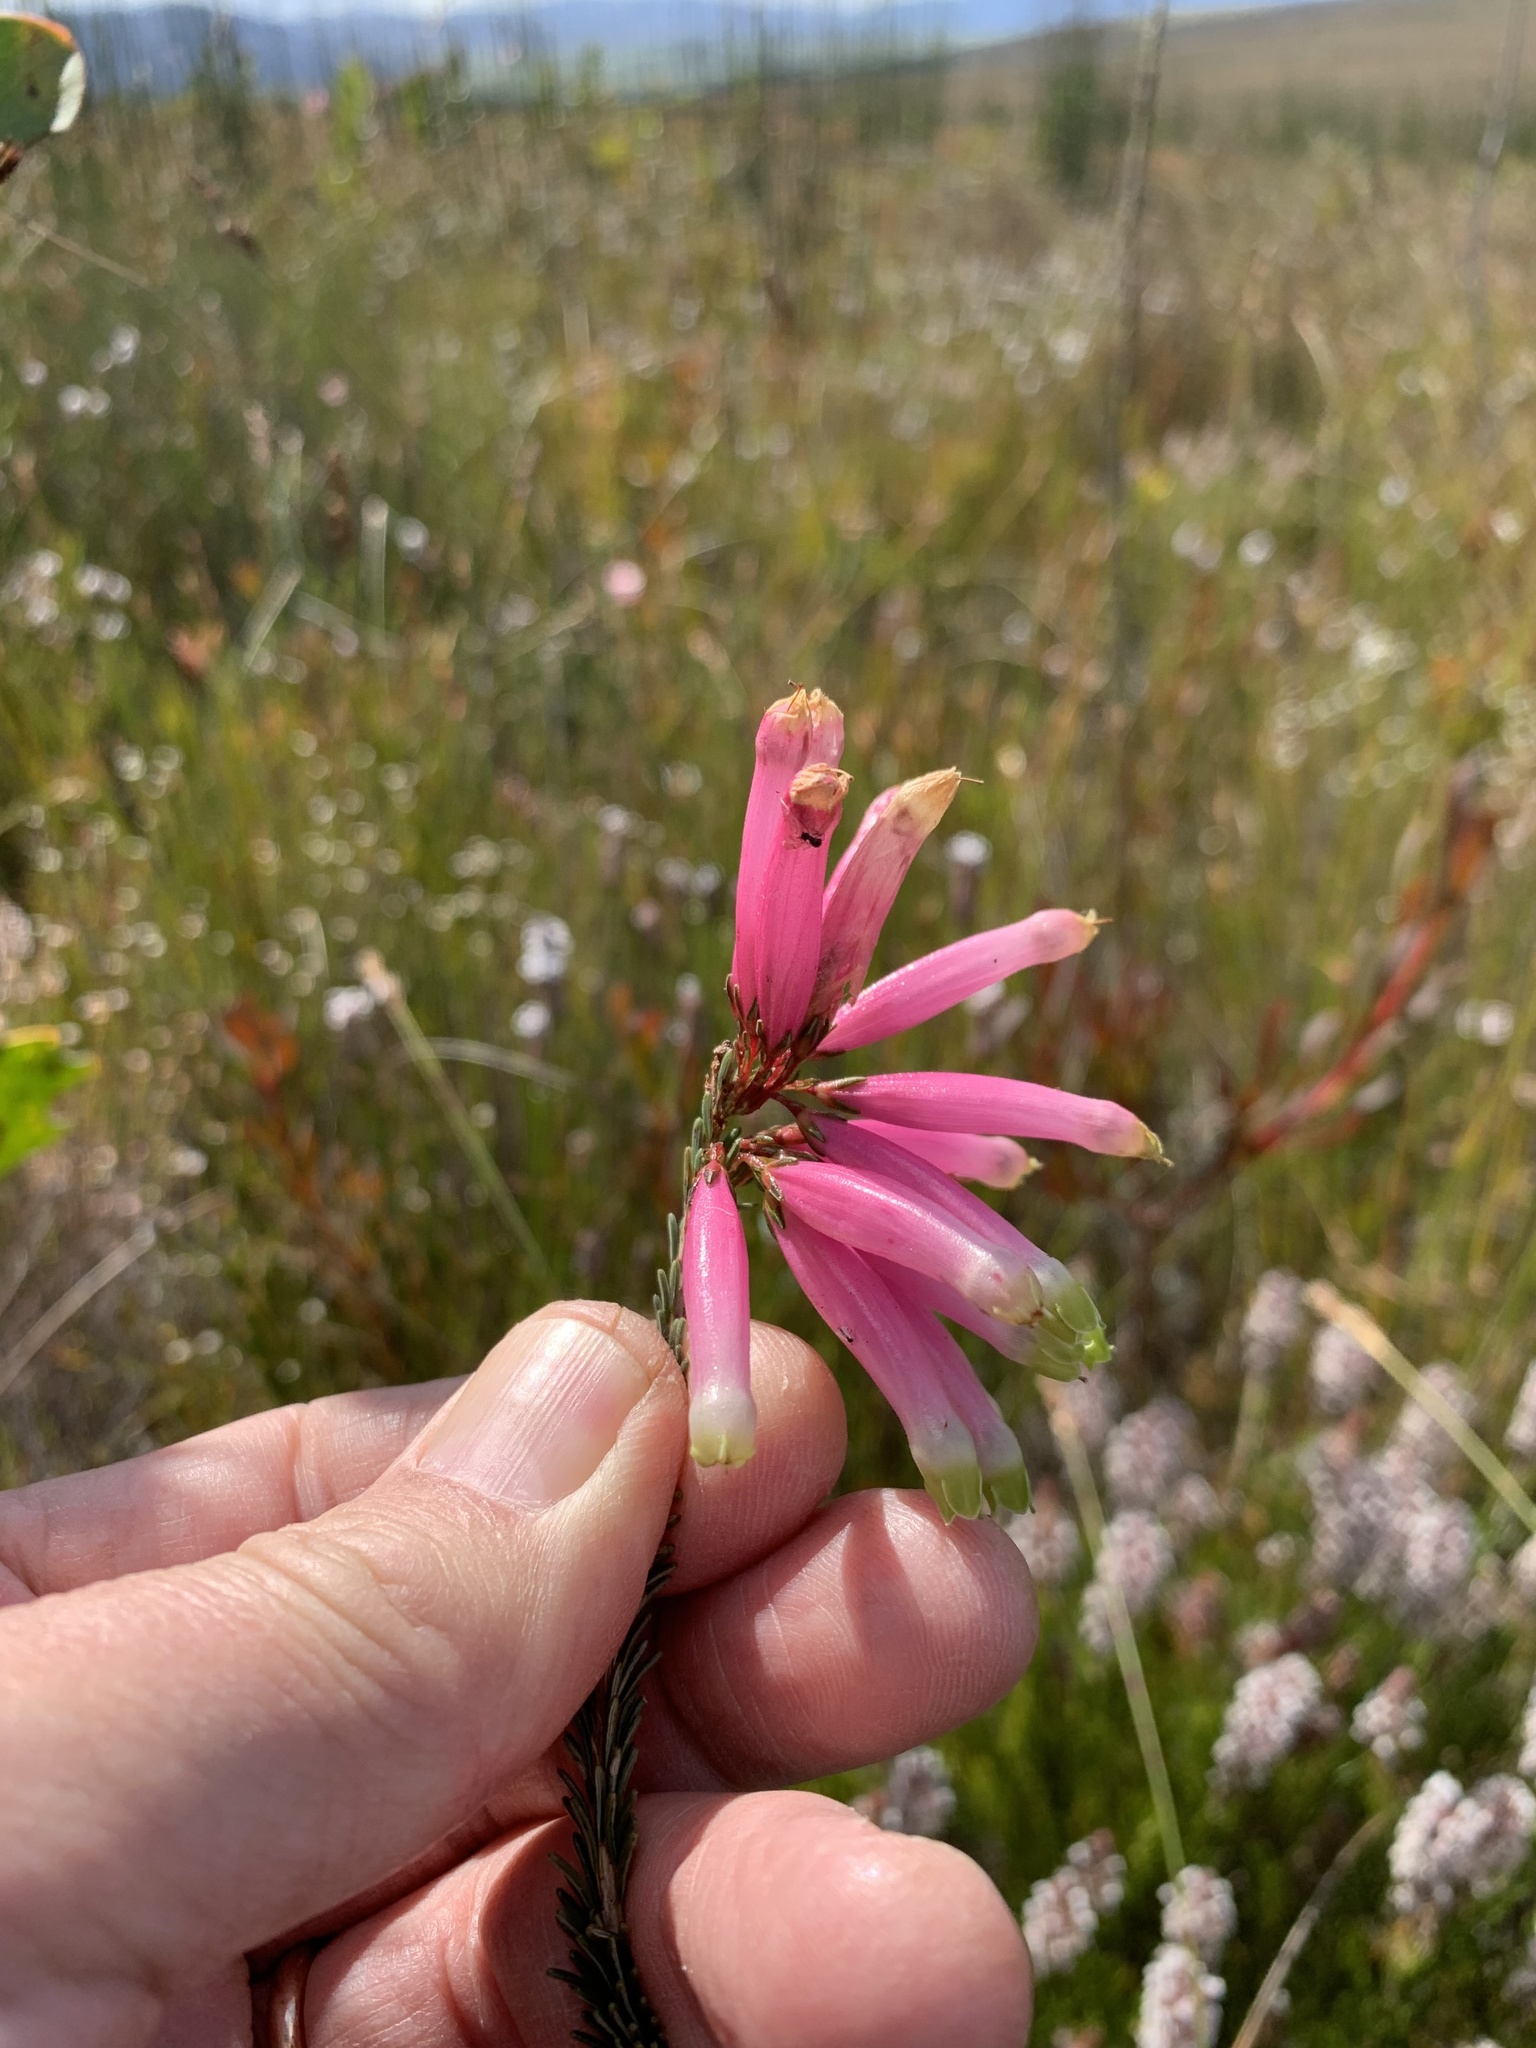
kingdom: Plantae
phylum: Tracheophyta
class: Magnoliopsida
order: Ericales
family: Ericaceae
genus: Erica
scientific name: Erica fascicularis
